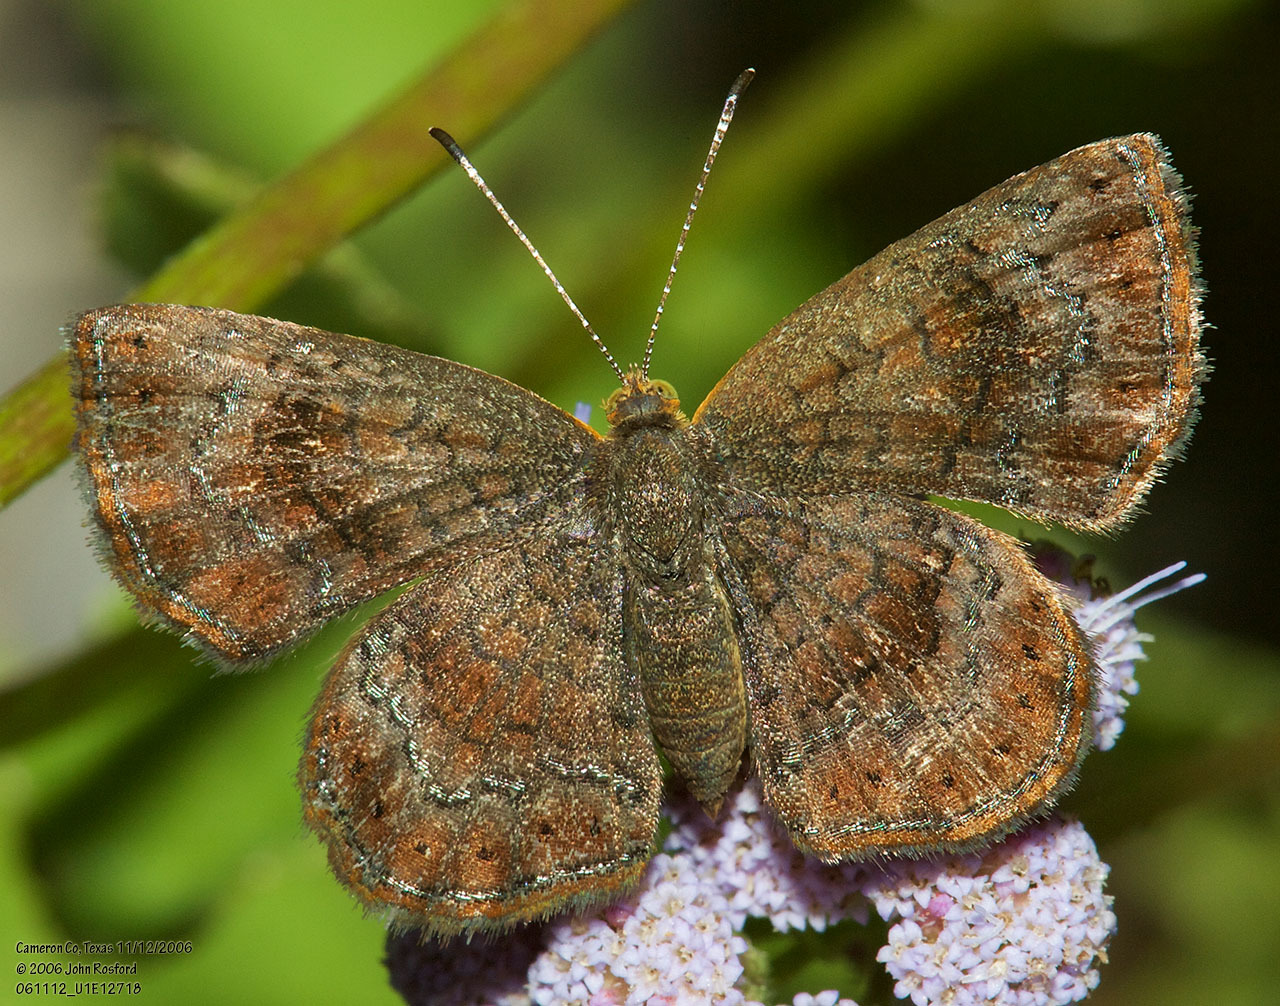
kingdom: Animalia
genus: Calephelis
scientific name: Calephelis perditalis
